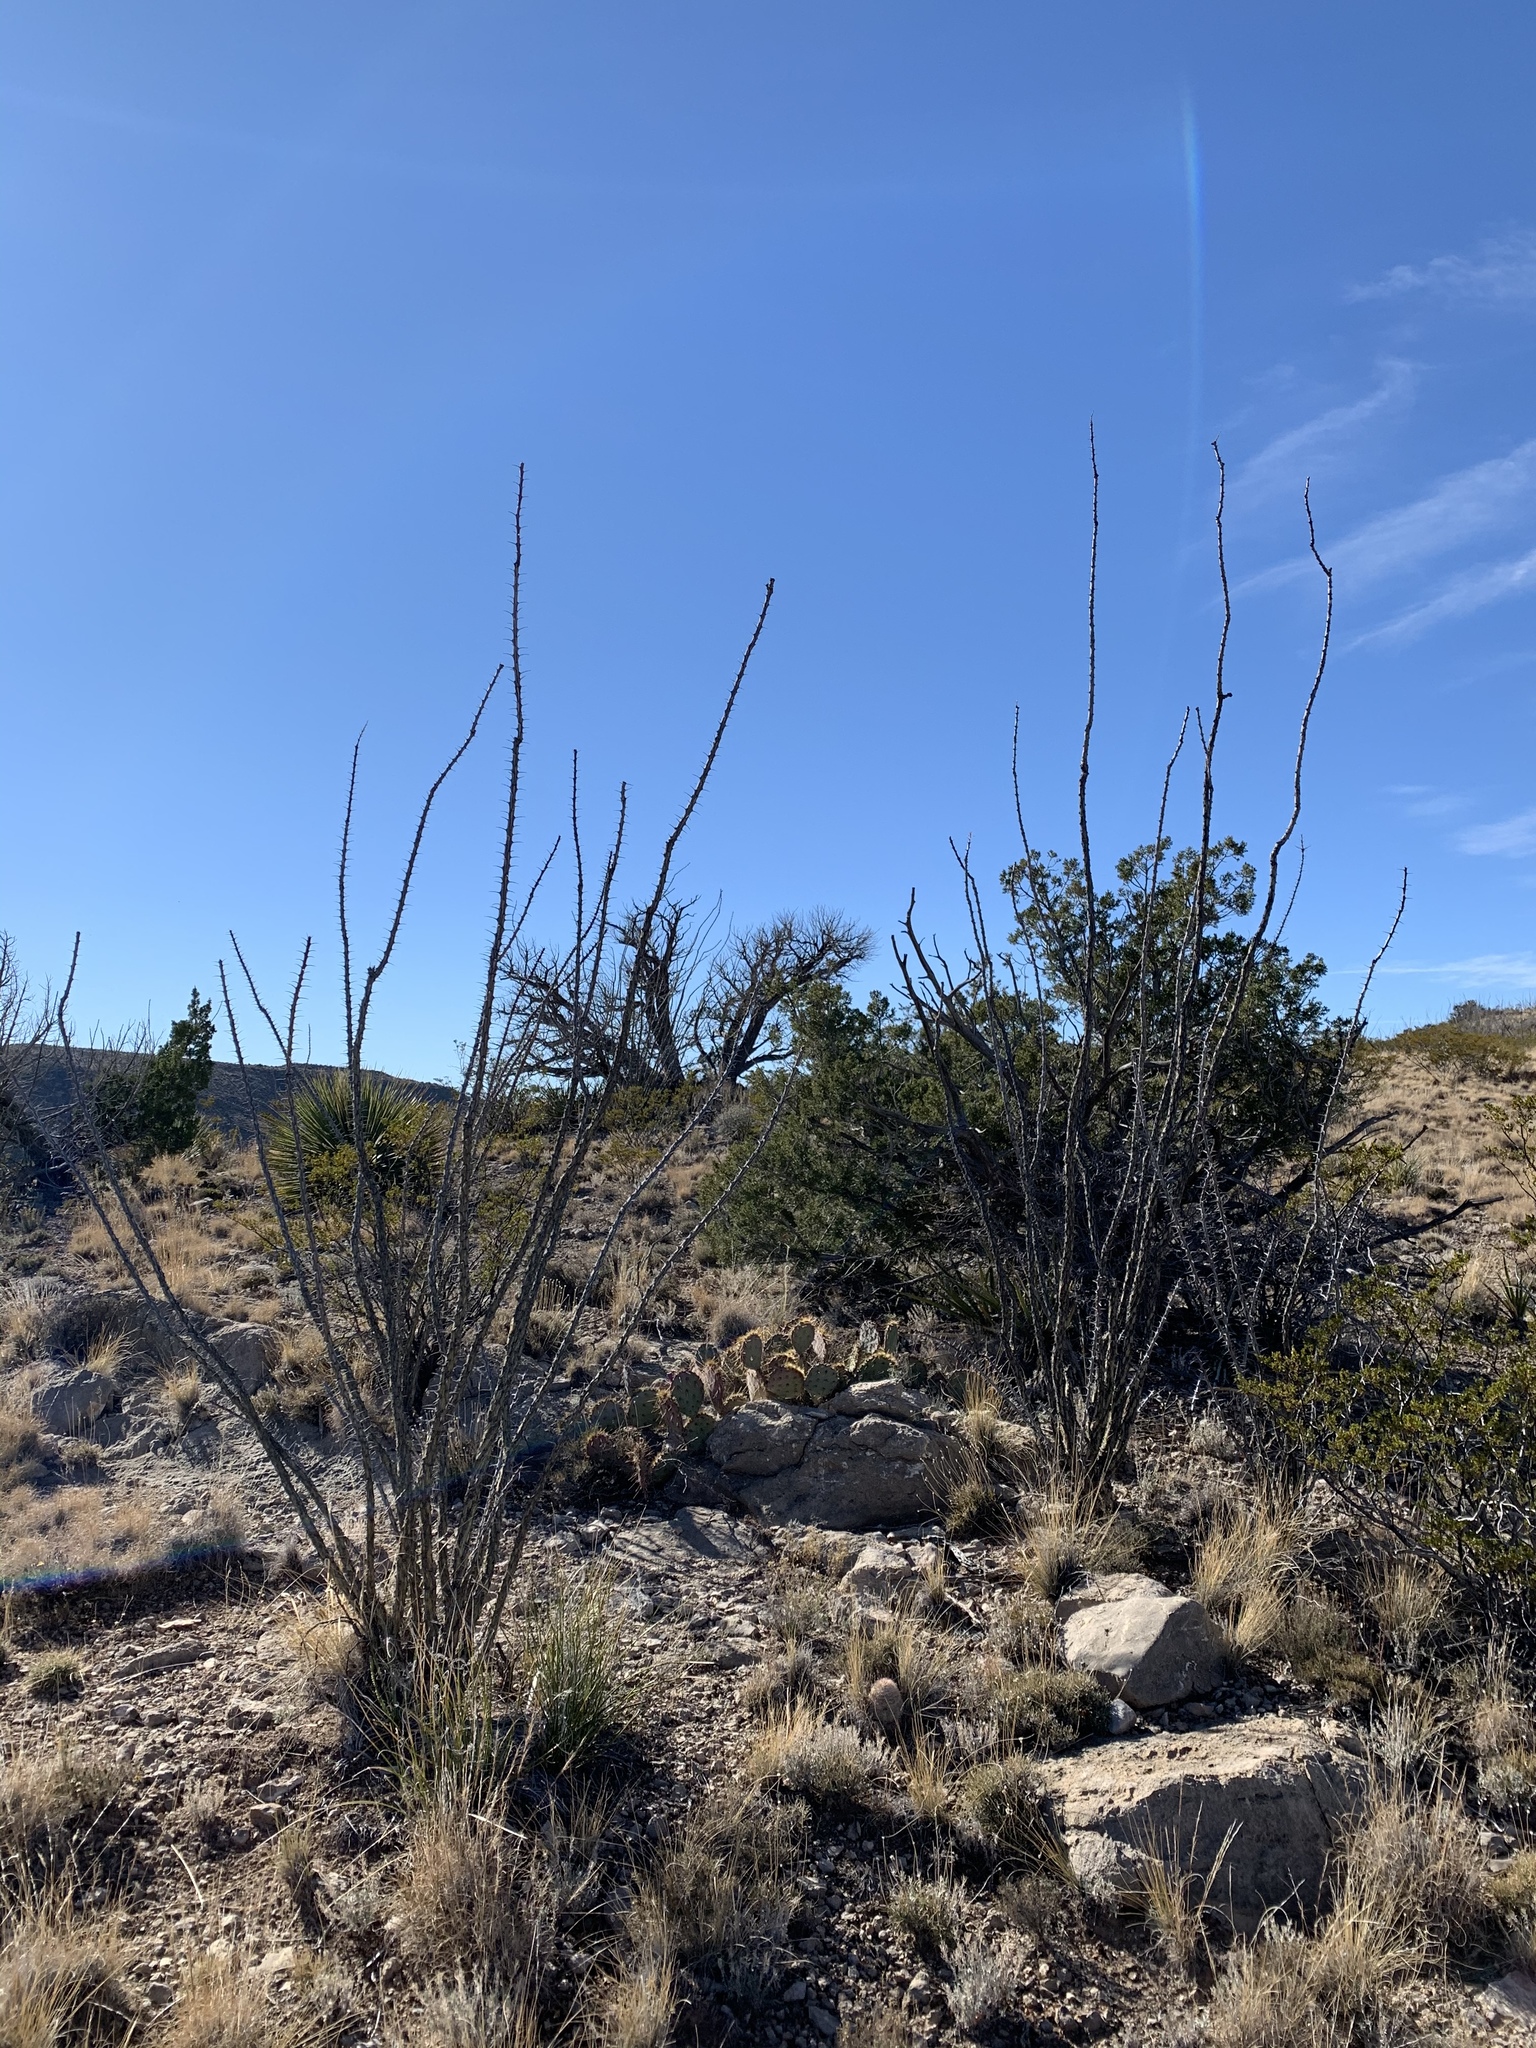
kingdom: Plantae
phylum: Tracheophyta
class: Magnoliopsida
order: Ericales
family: Fouquieriaceae
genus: Fouquieria
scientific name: Fouquieria splendens
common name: Vine-cactus
